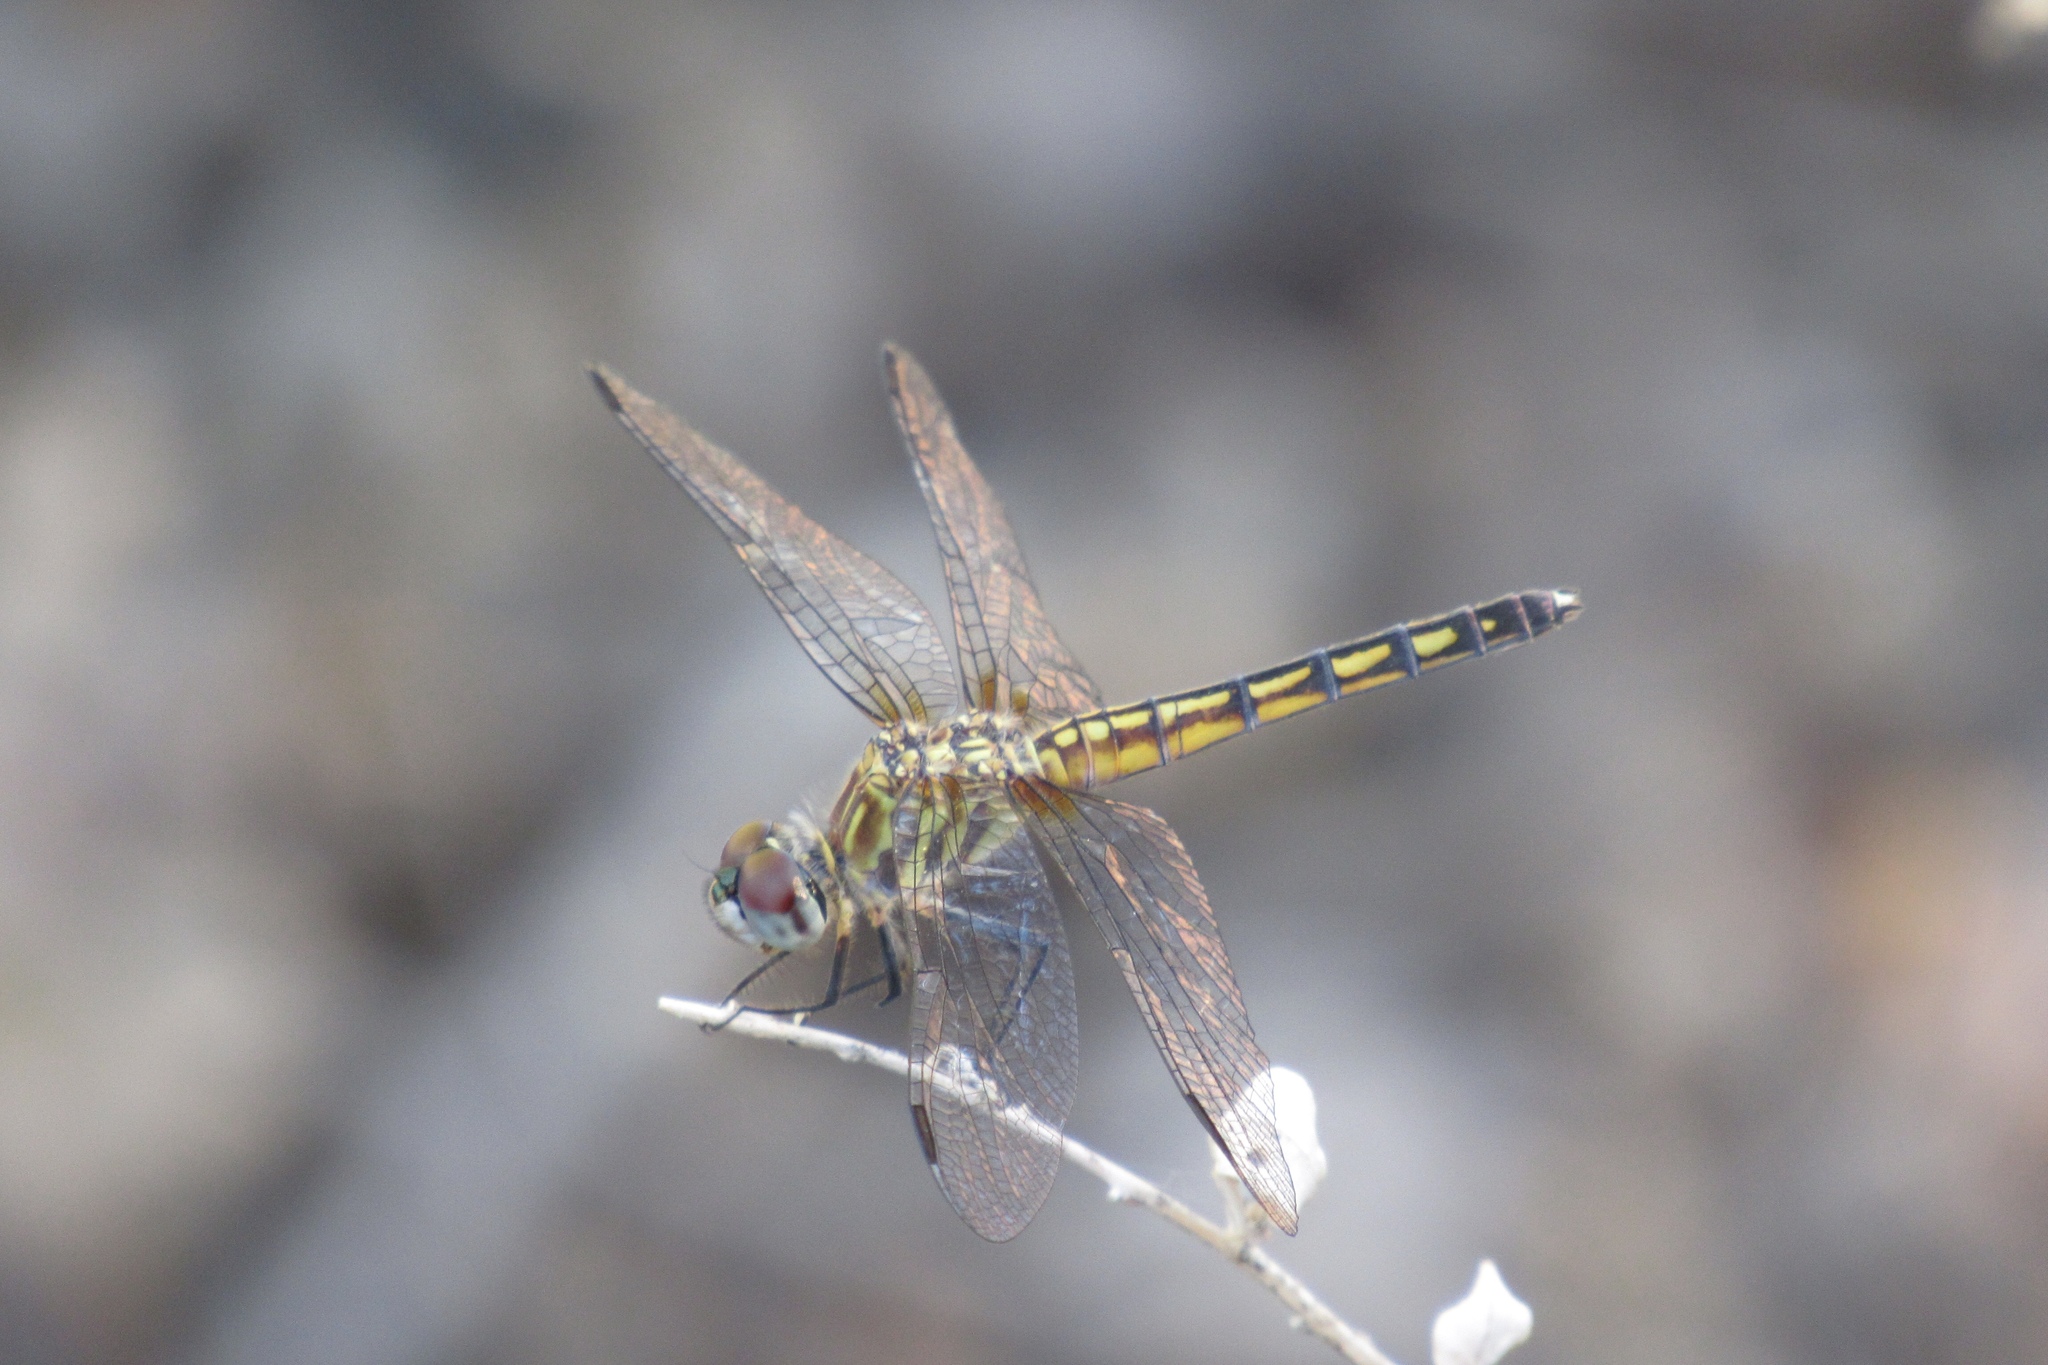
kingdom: Animalia
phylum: Arthropoda
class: Insecta
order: Odonata
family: Libellulidae
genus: Pachydiplax
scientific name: Pachydiplax longipennis
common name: Blue dasher
